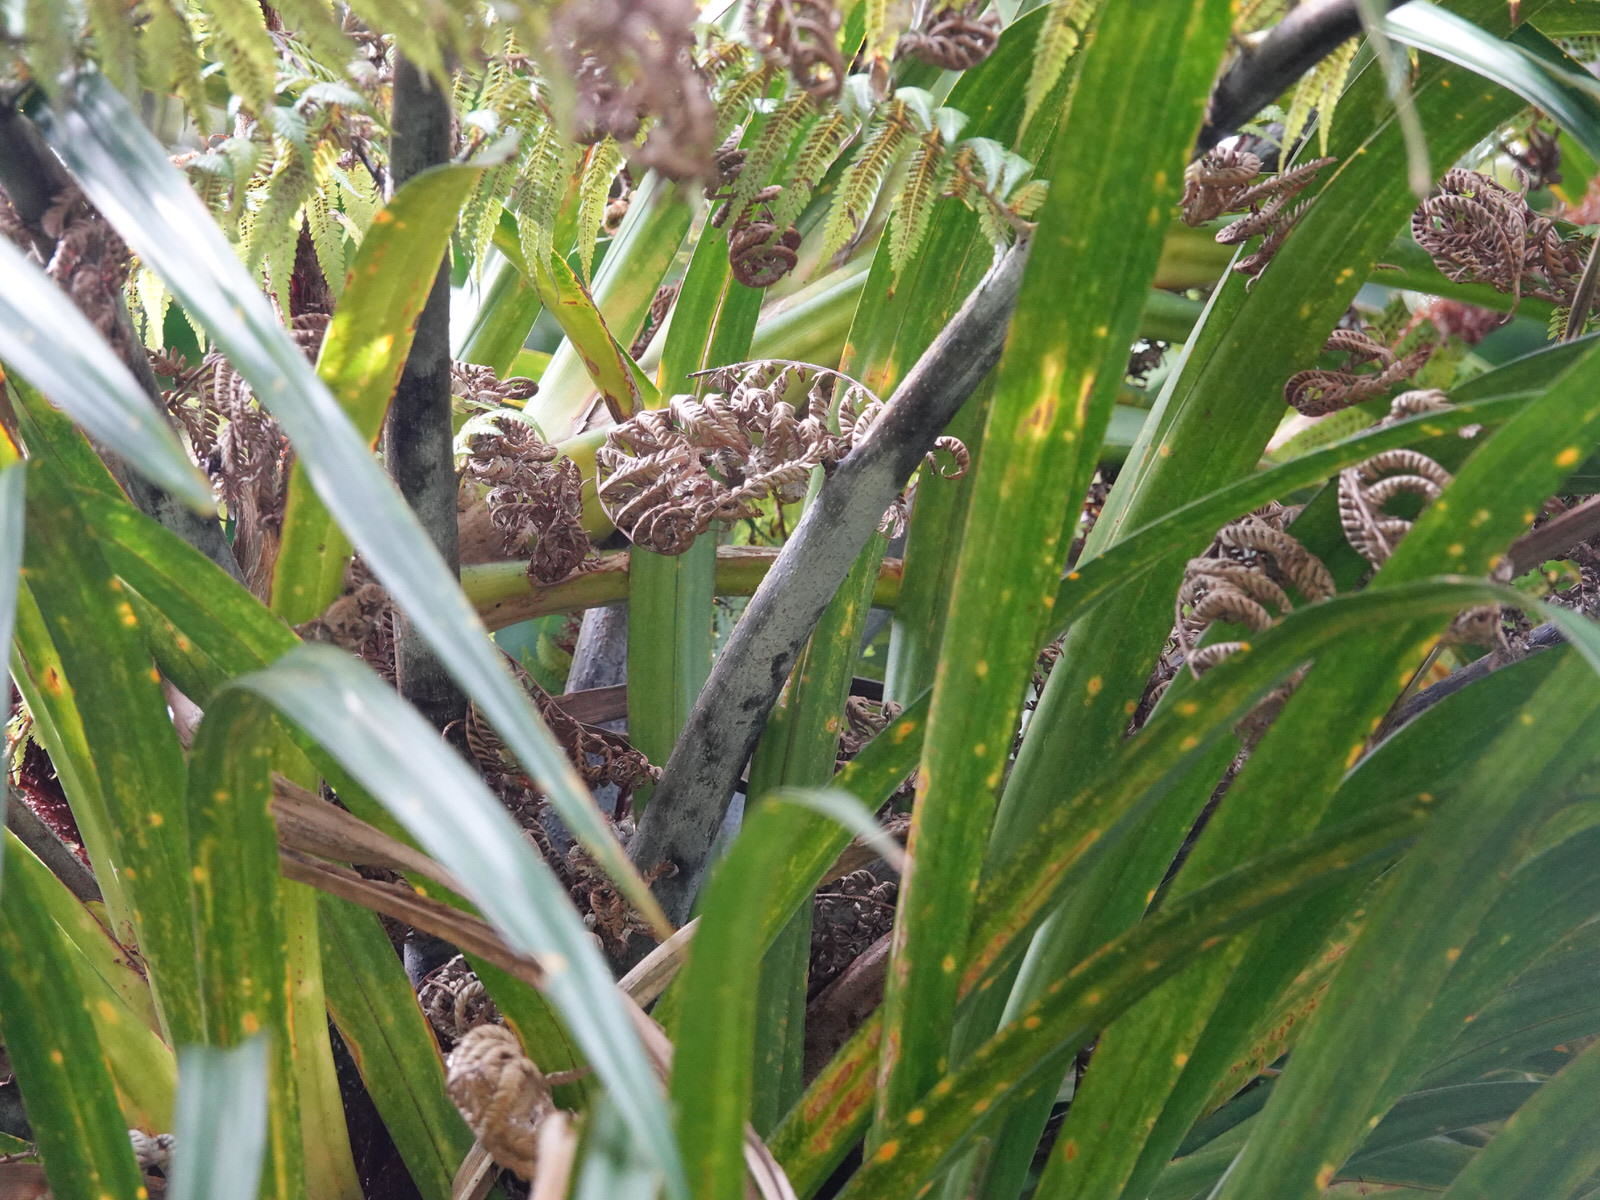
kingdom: Plantae
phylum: Tracheophyta
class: Polypodiopsida
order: Cyatheales
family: Cyatheaceae
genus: Alsophila
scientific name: Alsophila dealbata
